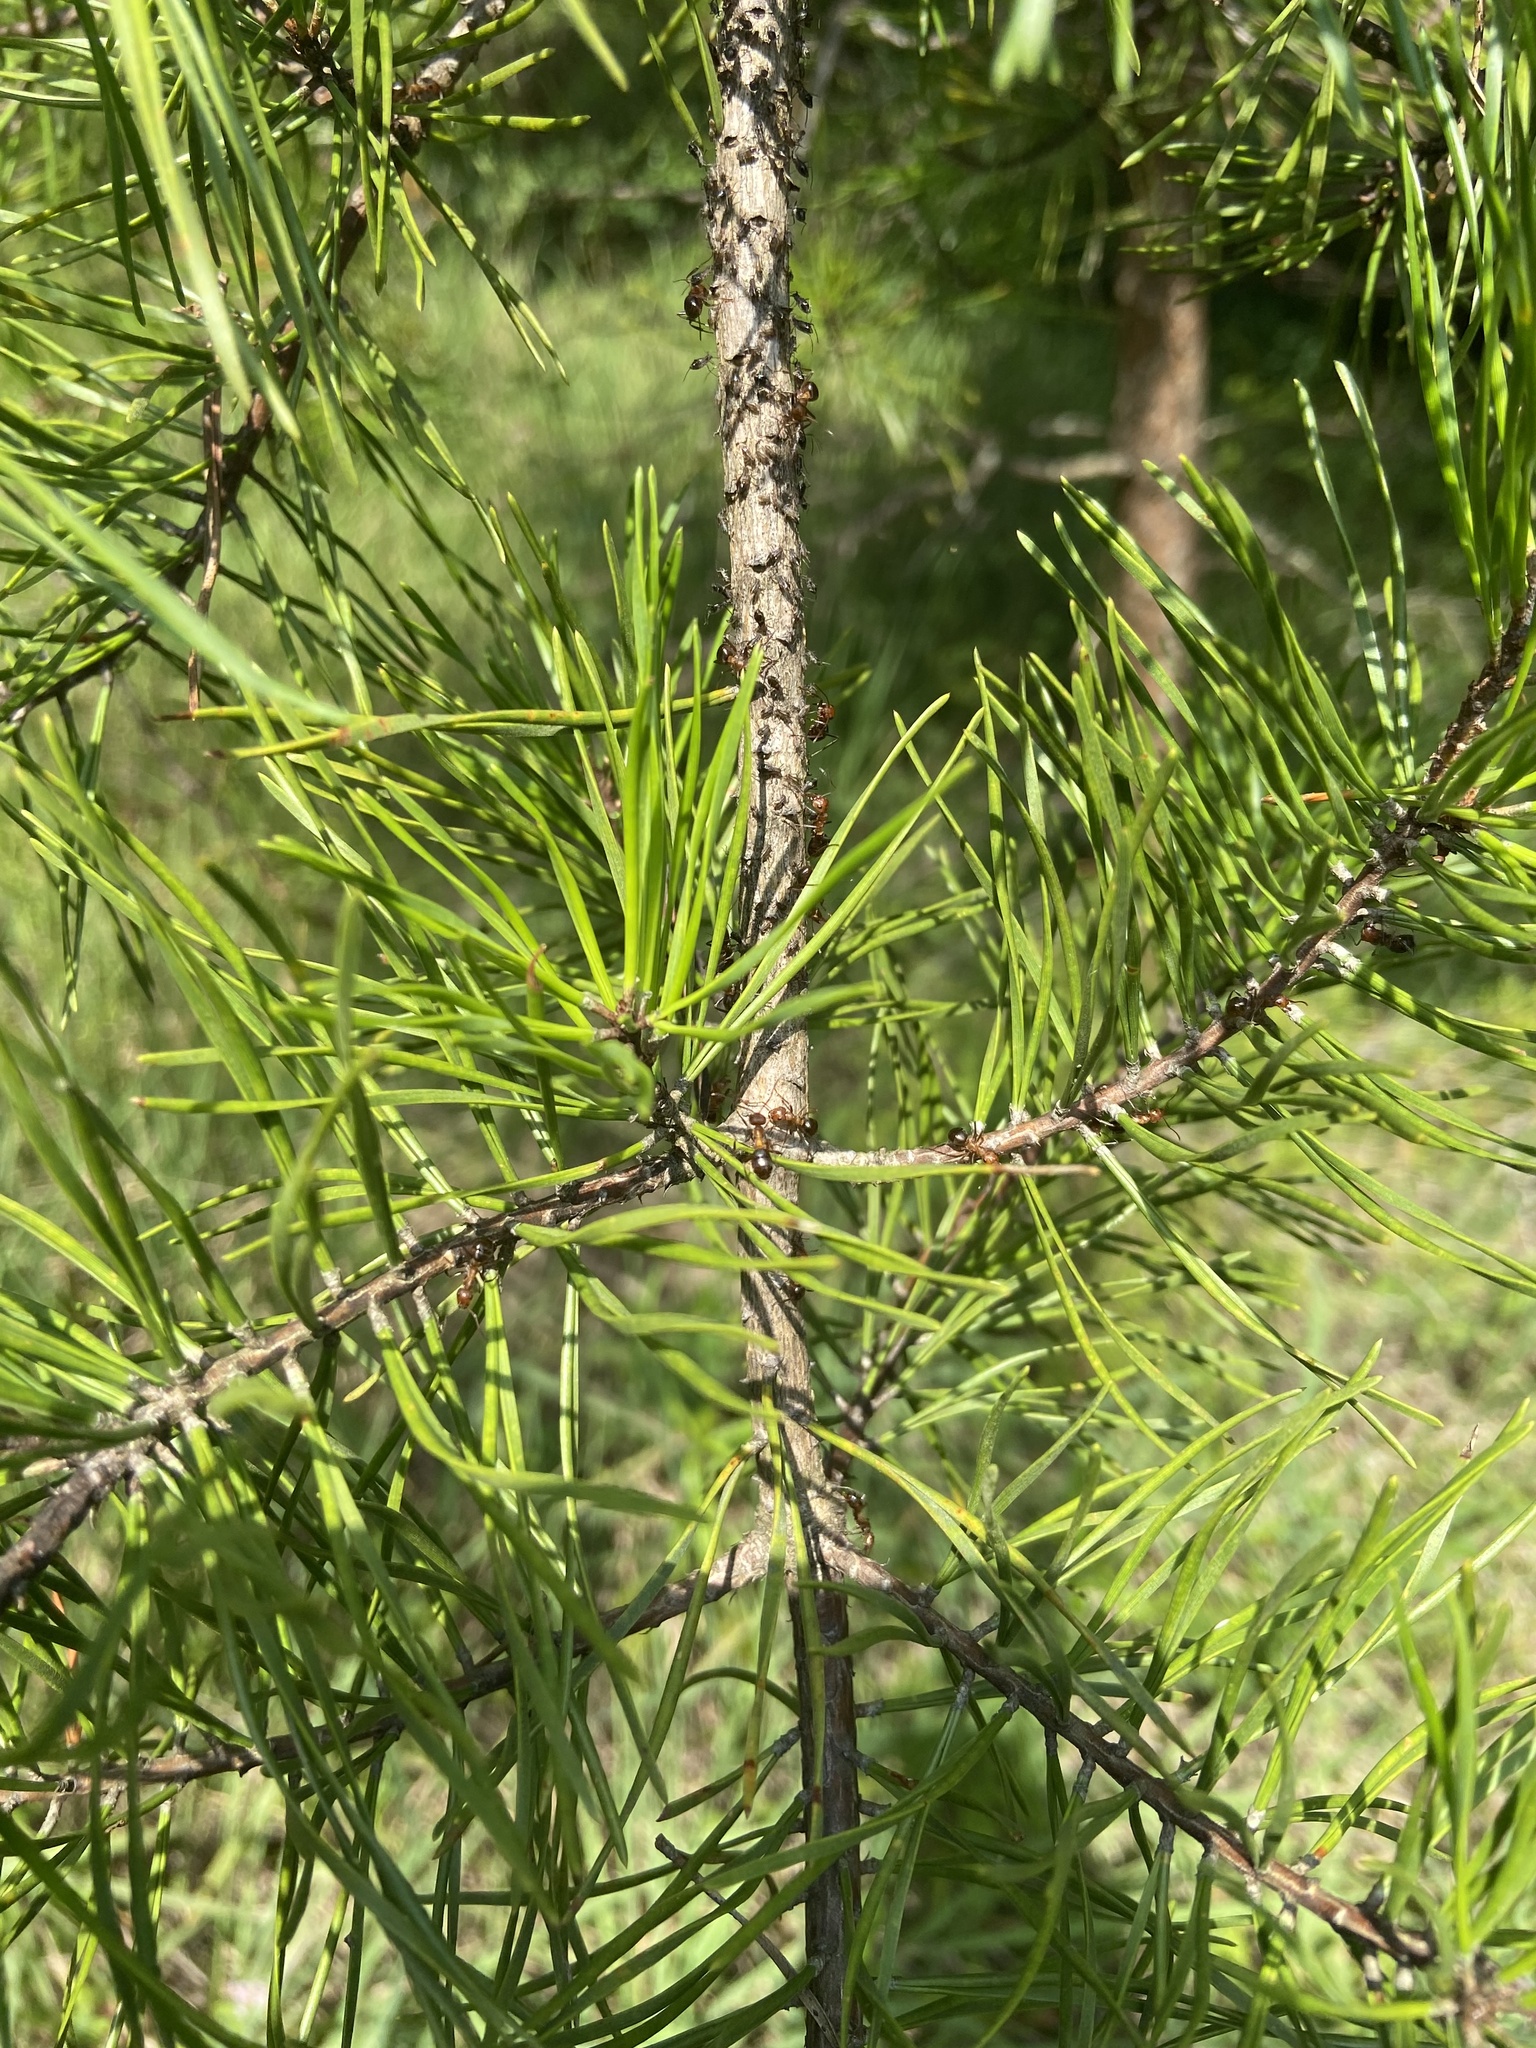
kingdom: Plantae
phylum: Tracheophyta
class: Pinopsida
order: Pinales
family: Pinaceae
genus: Pinus
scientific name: Pinus virginiana
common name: Scrub pine
